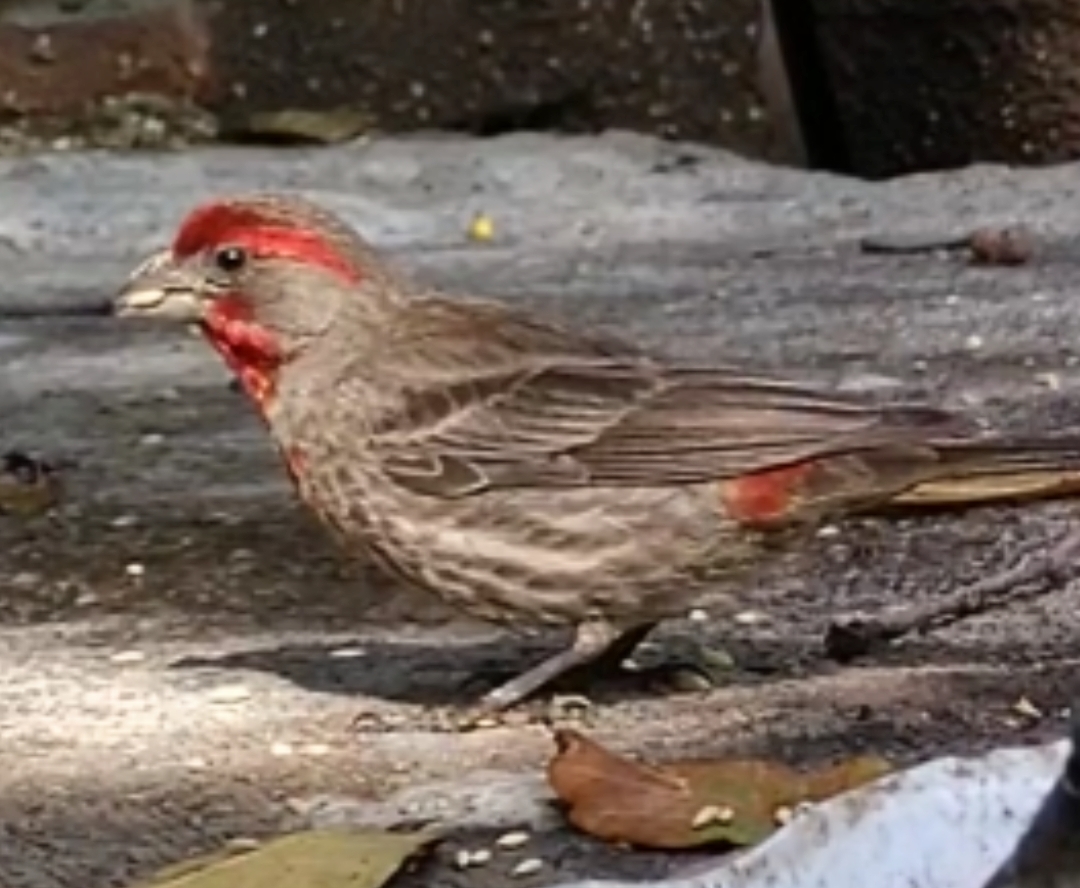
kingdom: Animalia
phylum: Chordata
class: Aves
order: Passeriformes
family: Fringillidae
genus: Haemorhous
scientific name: Haemorhous mexicanus
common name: House finch
